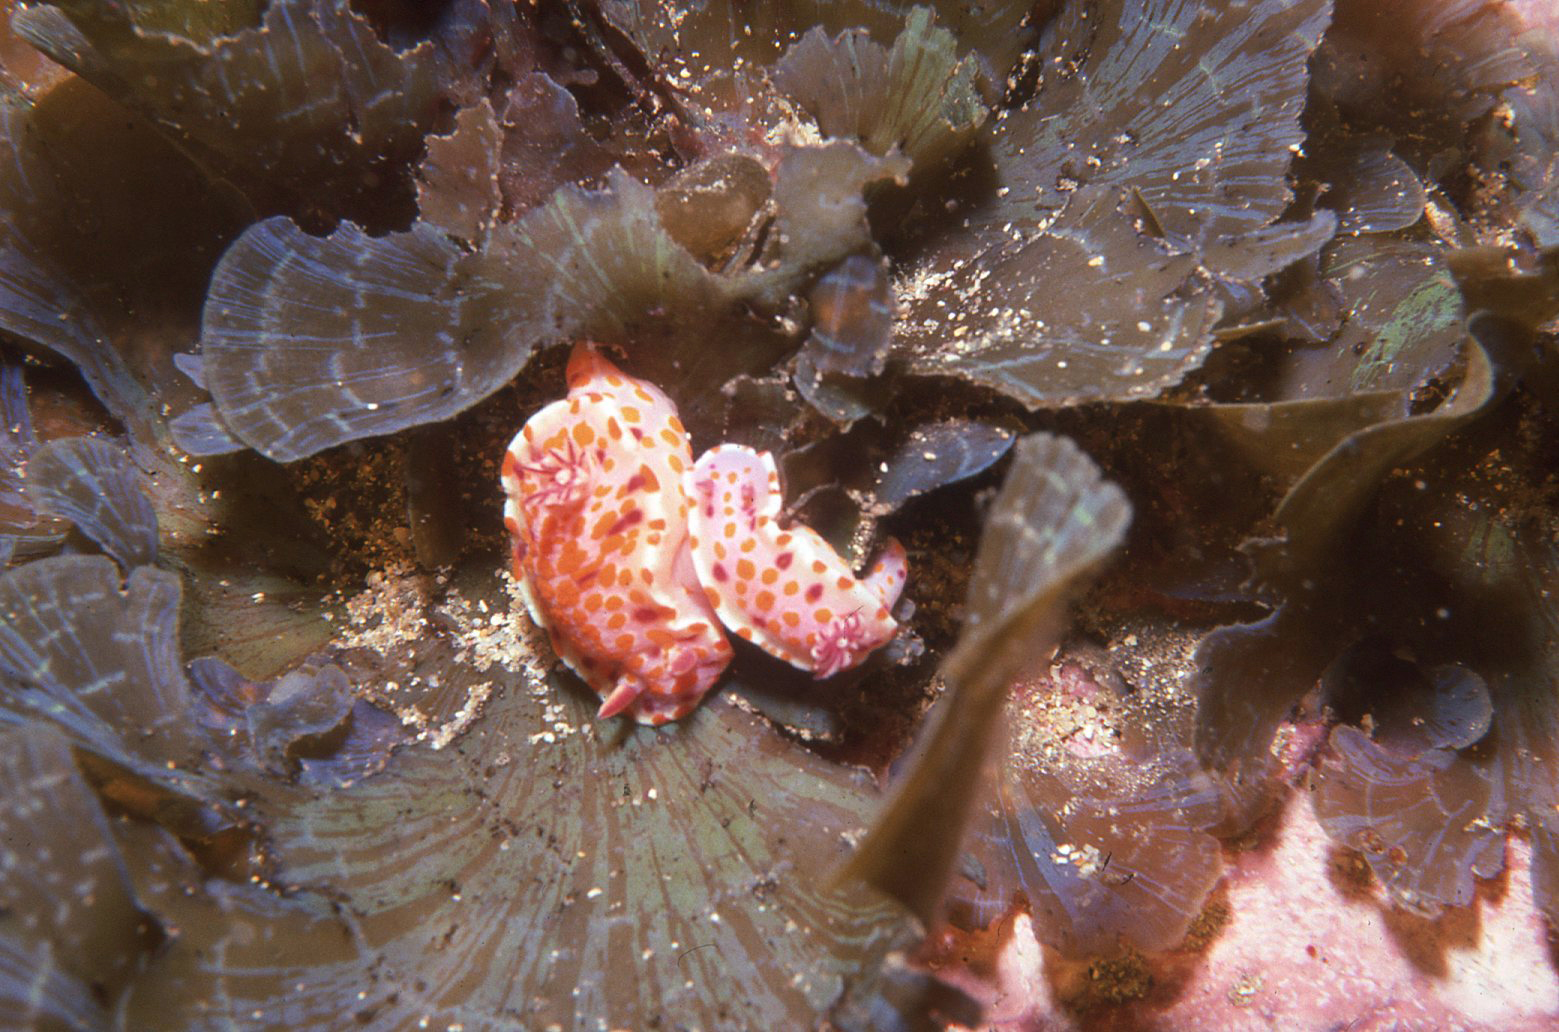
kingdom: Animalia
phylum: Mollusca
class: Gastropoda
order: Nudibranchia
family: Chromodorididae
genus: Ceratosoma
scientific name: Ceratosoma amoenum
